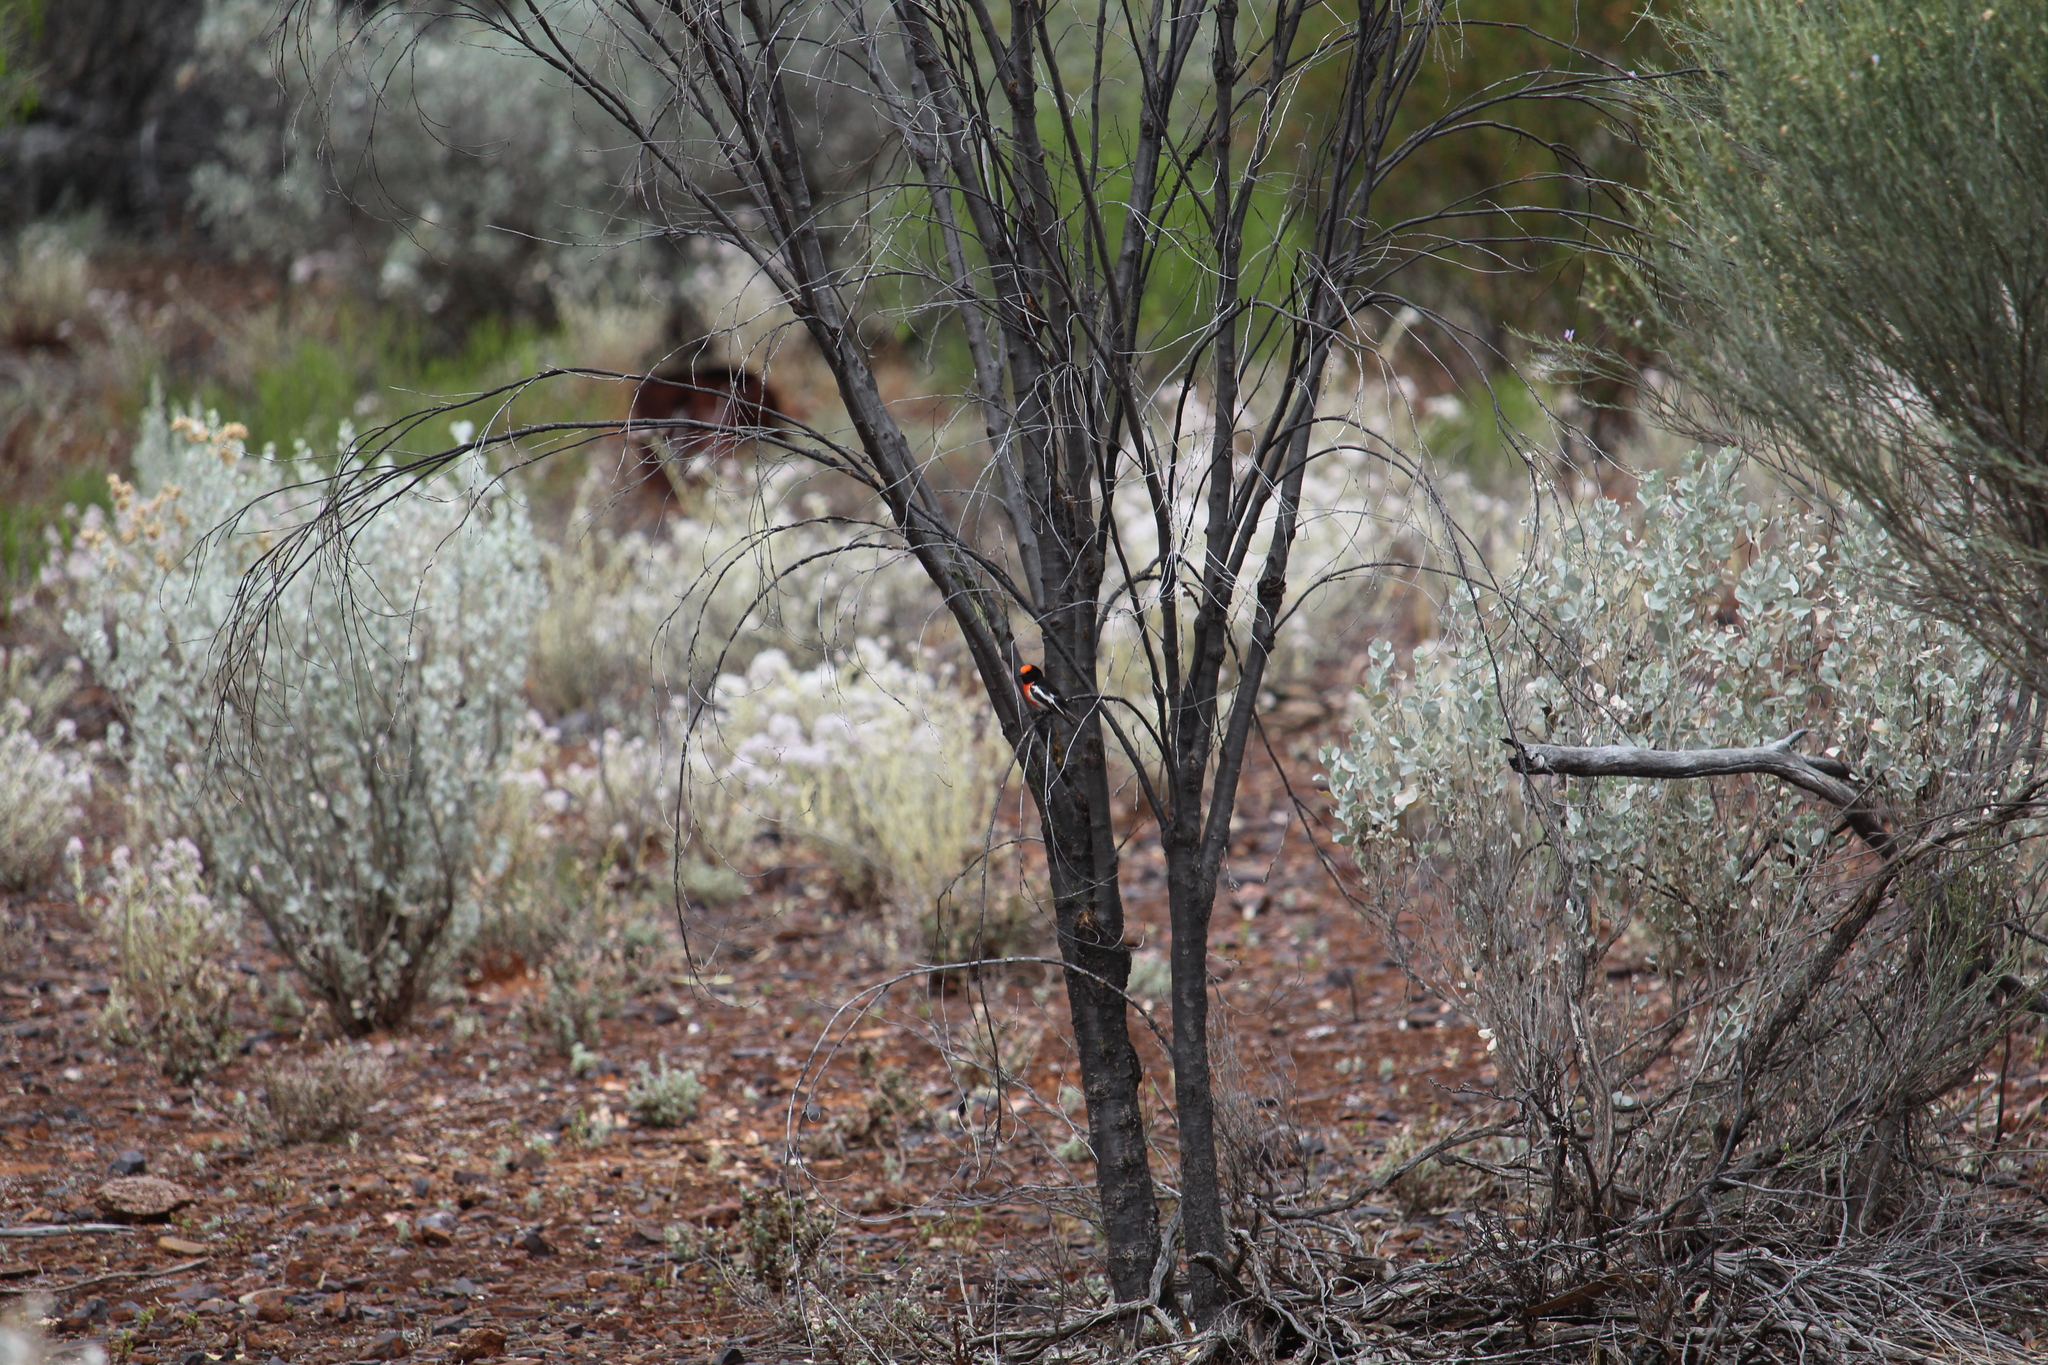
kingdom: Animalia
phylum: Chordata
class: Aves
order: Passeriformes
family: Petroicidae
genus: Petroica
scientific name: Petroica goodenovii
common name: Red-capped robin
